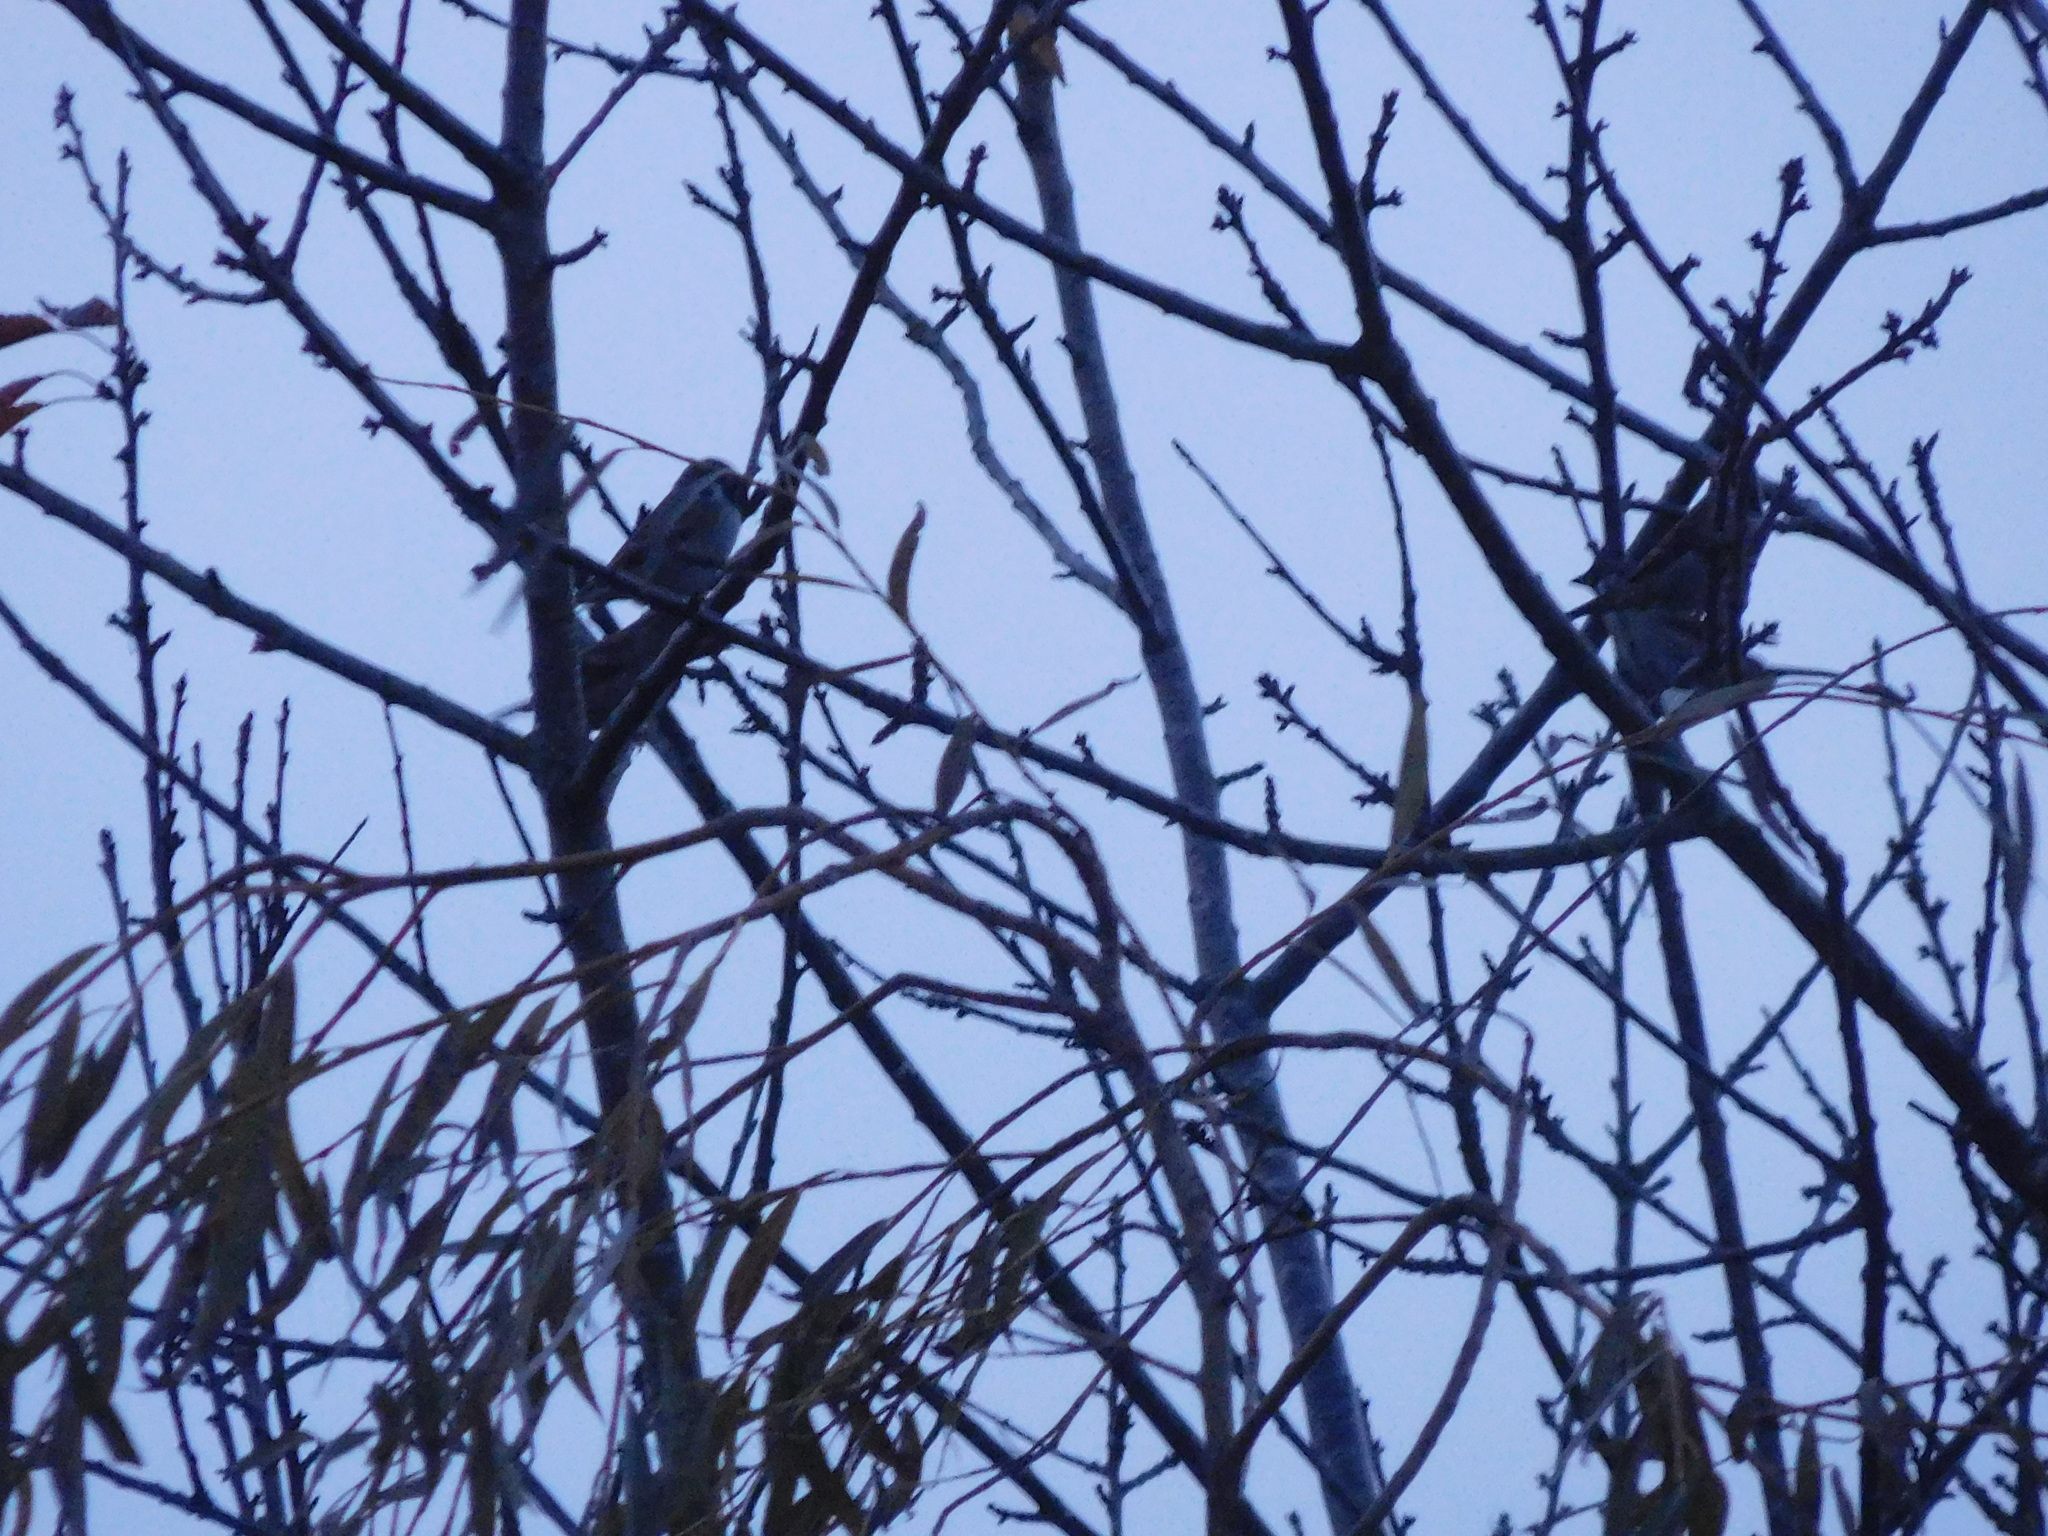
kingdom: Animalia
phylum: Chordata
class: Aves
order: Passeriformes
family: Passeridae
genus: Passer
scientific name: Passer montanus
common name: Eurasian tree sparrow
